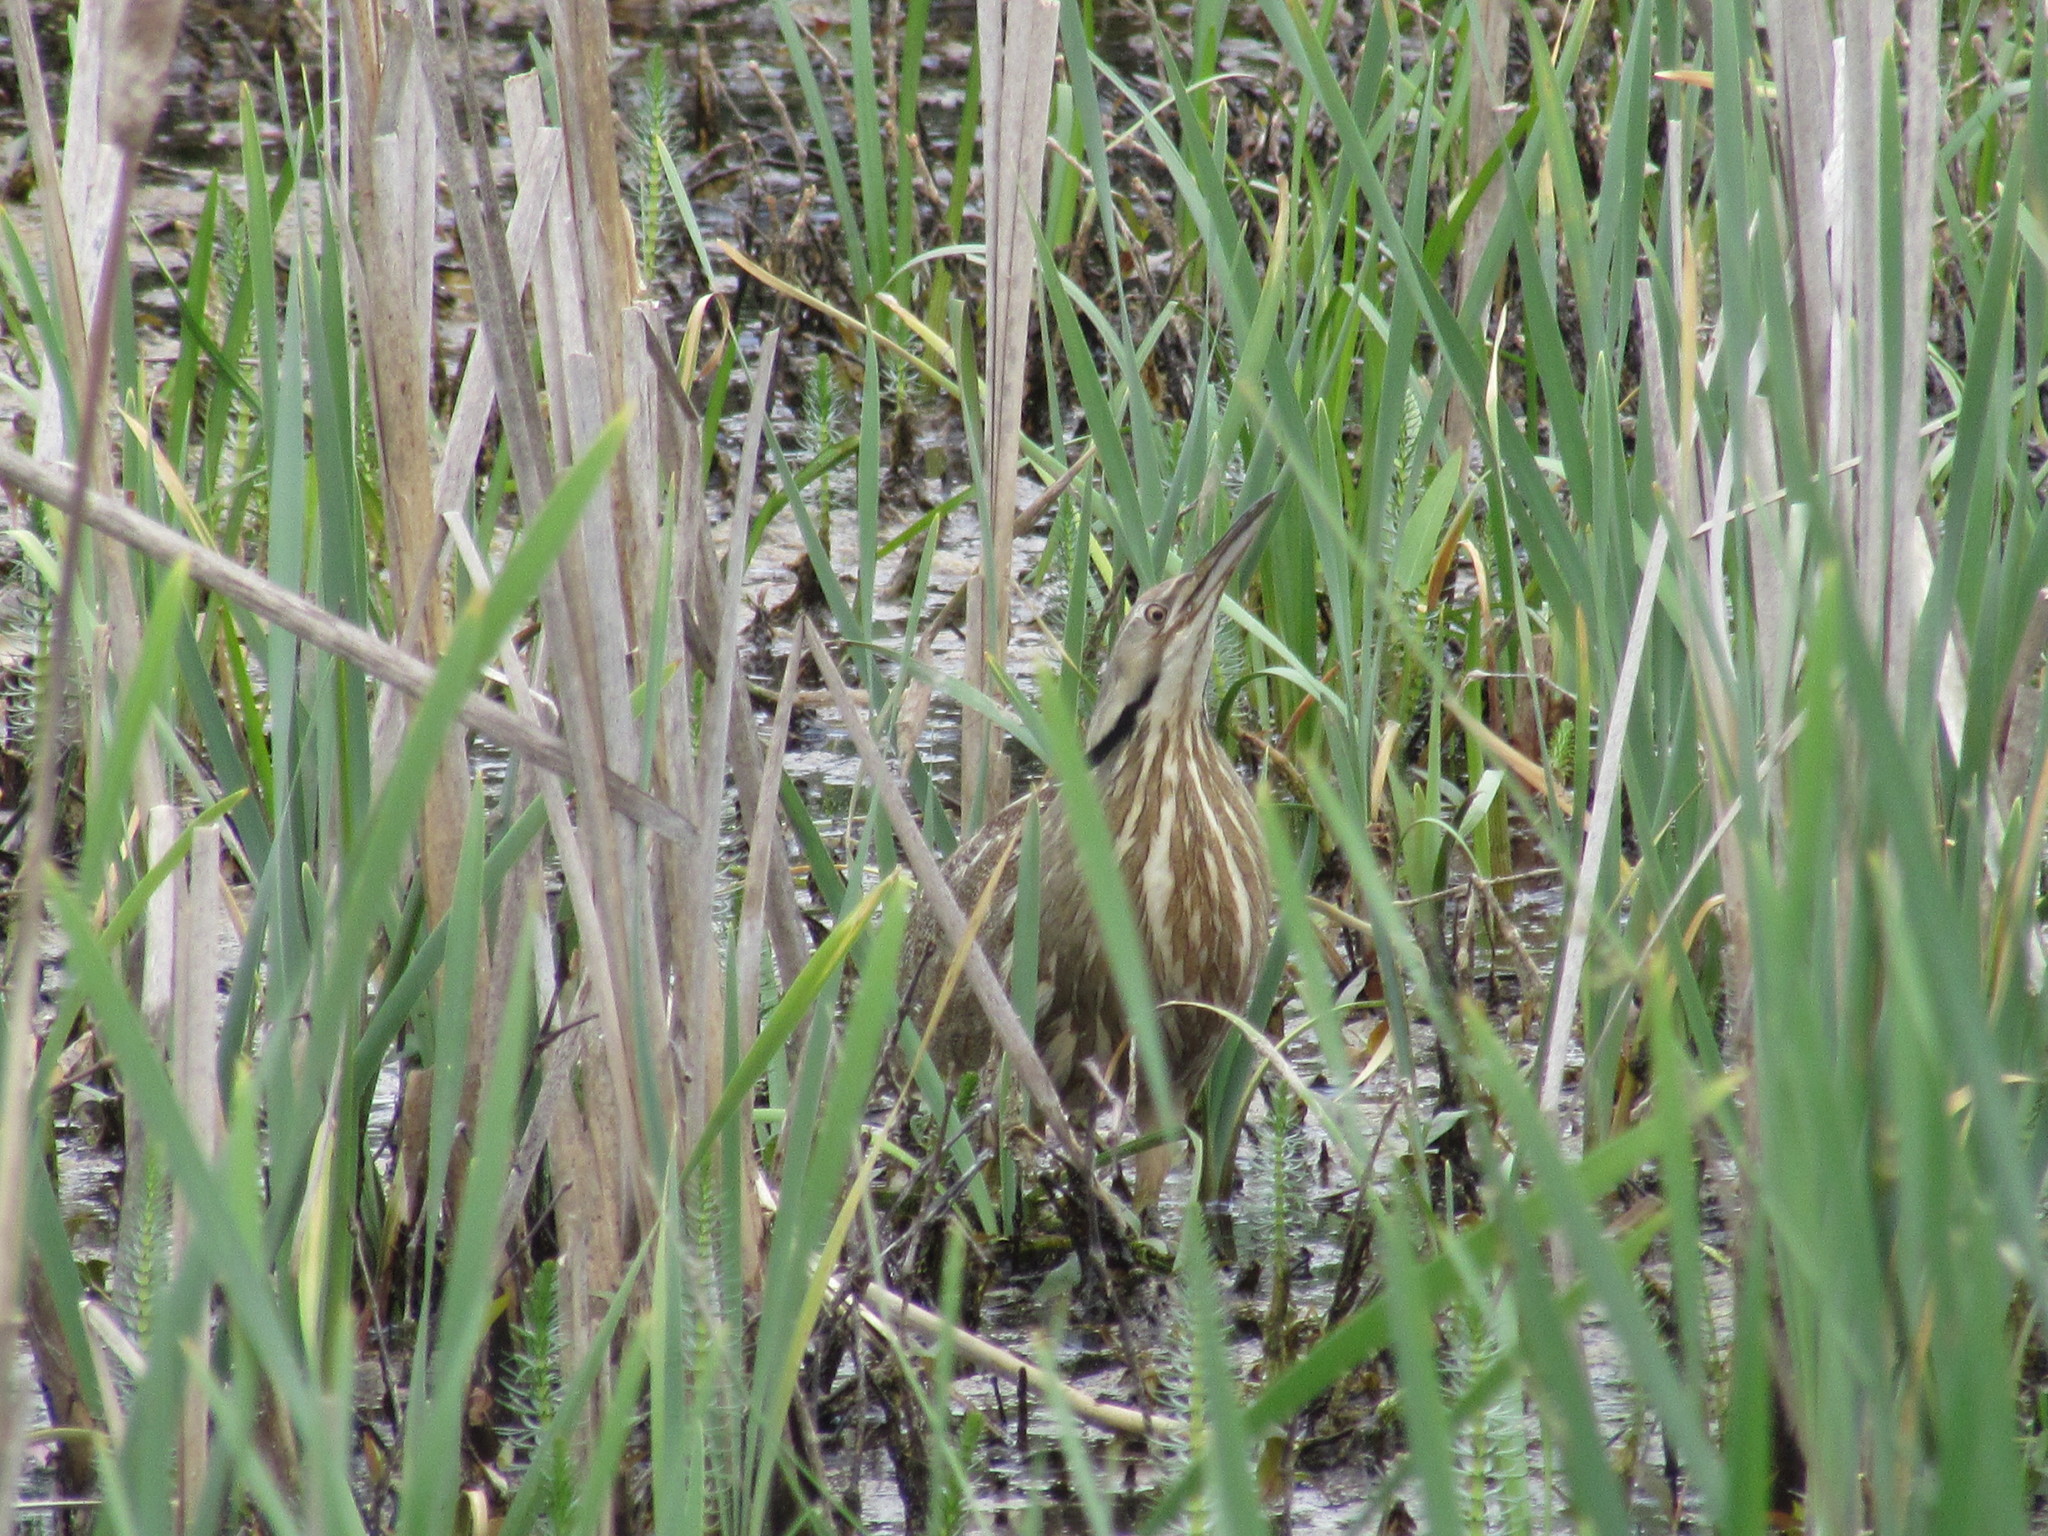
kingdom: Animalia
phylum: Chordata
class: Aves
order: Pelecaniformes
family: Ardeidae
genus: Botaurus
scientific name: Botaurus lentiginosus
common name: American bittern
